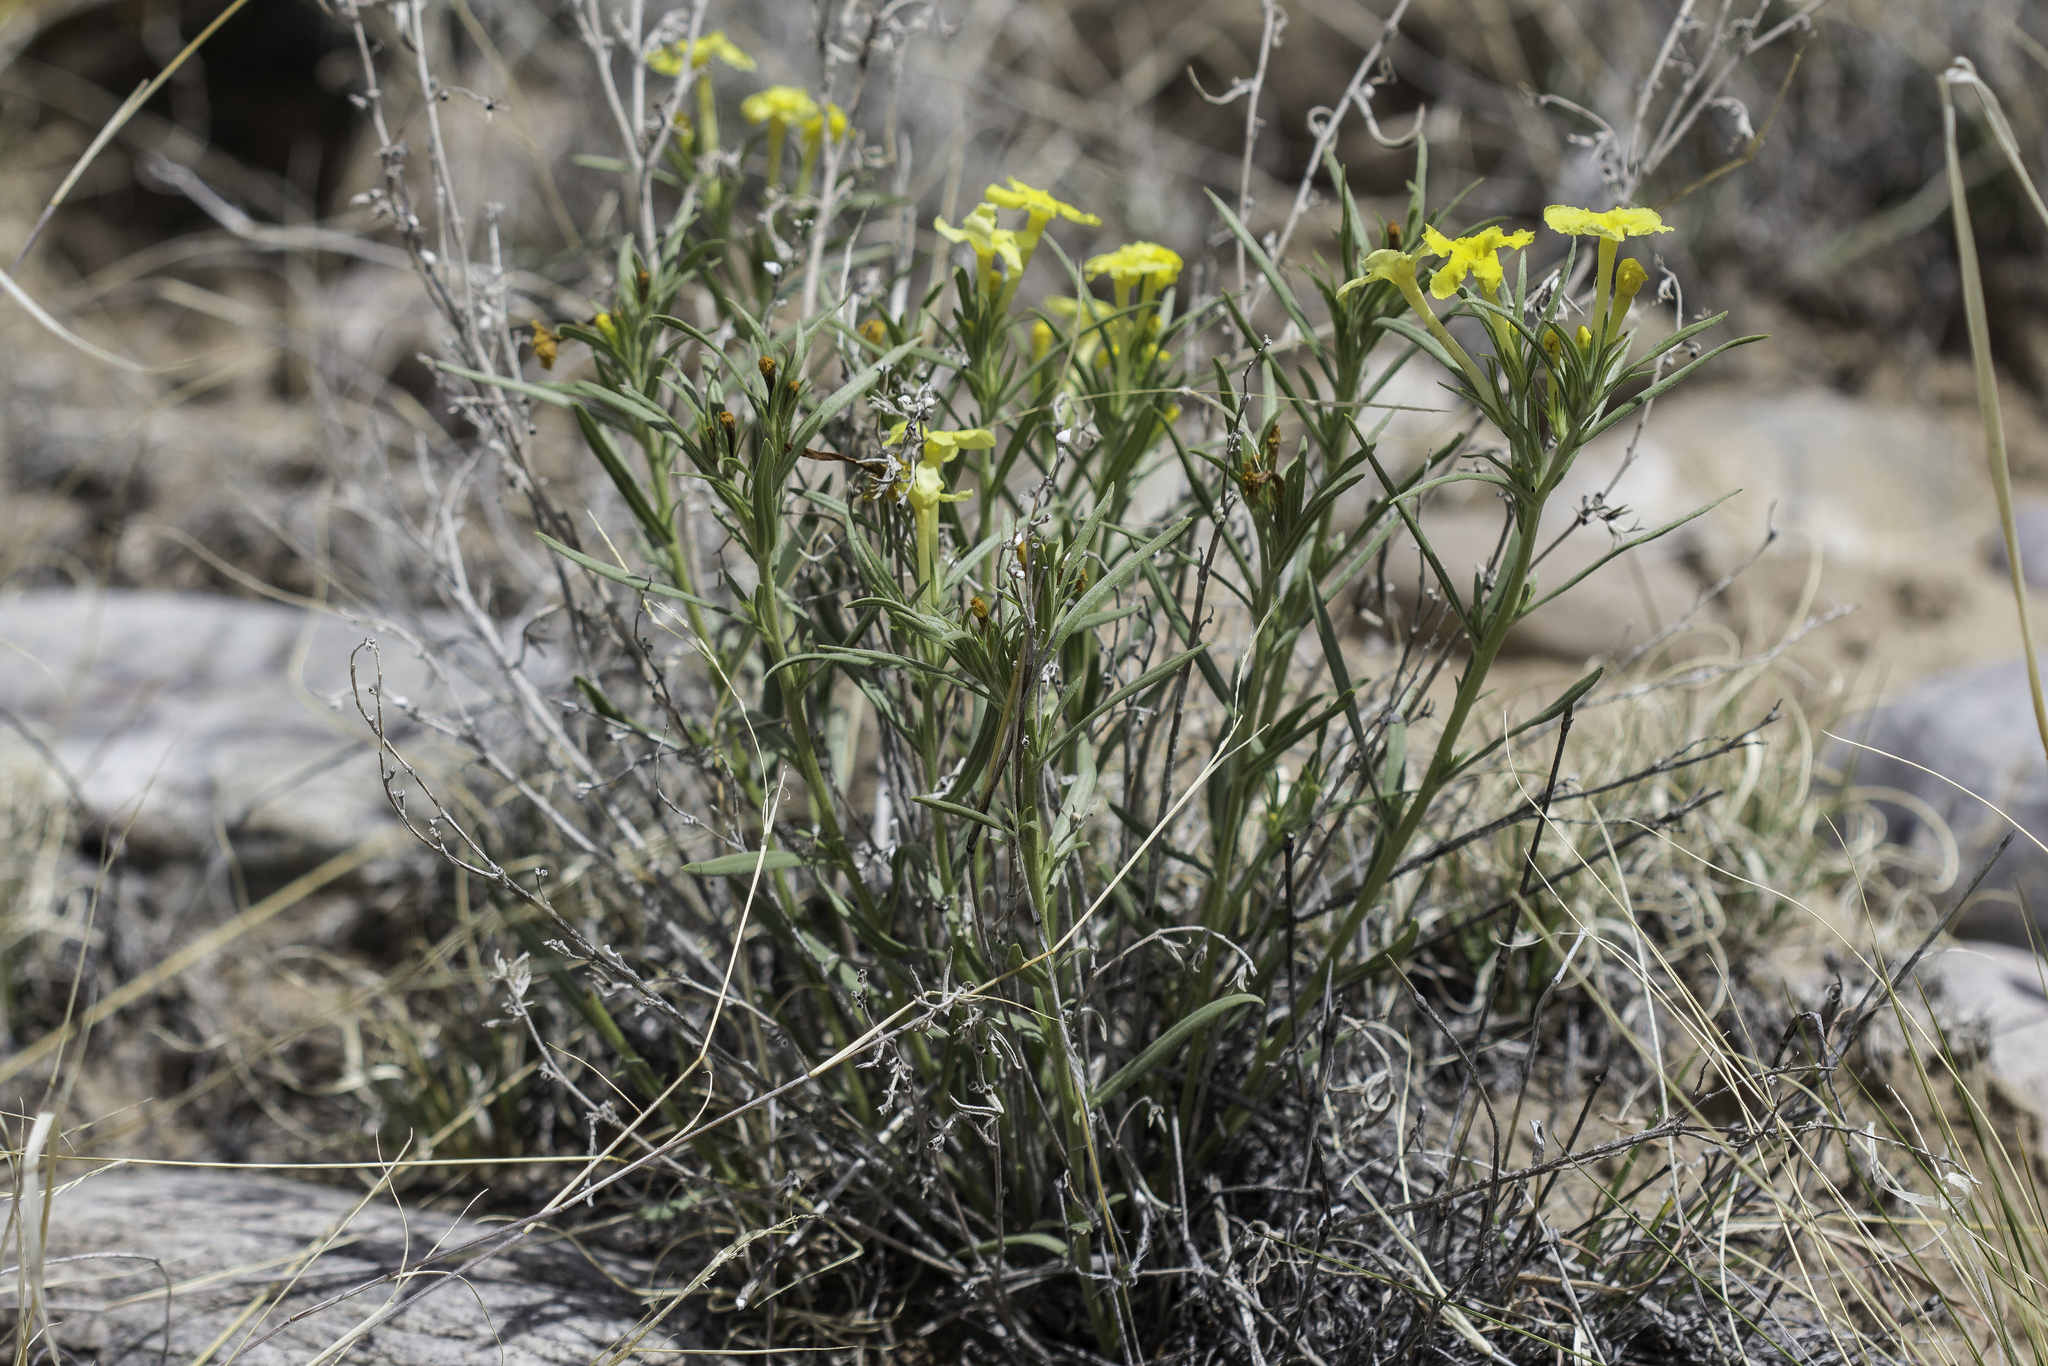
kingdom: Plantae
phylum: Tracheophyta
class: Magnoliopsida
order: Boraginales
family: Boraginaceae
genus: Lithospermum
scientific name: Lithospermum incisum
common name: Fringed gromwell
